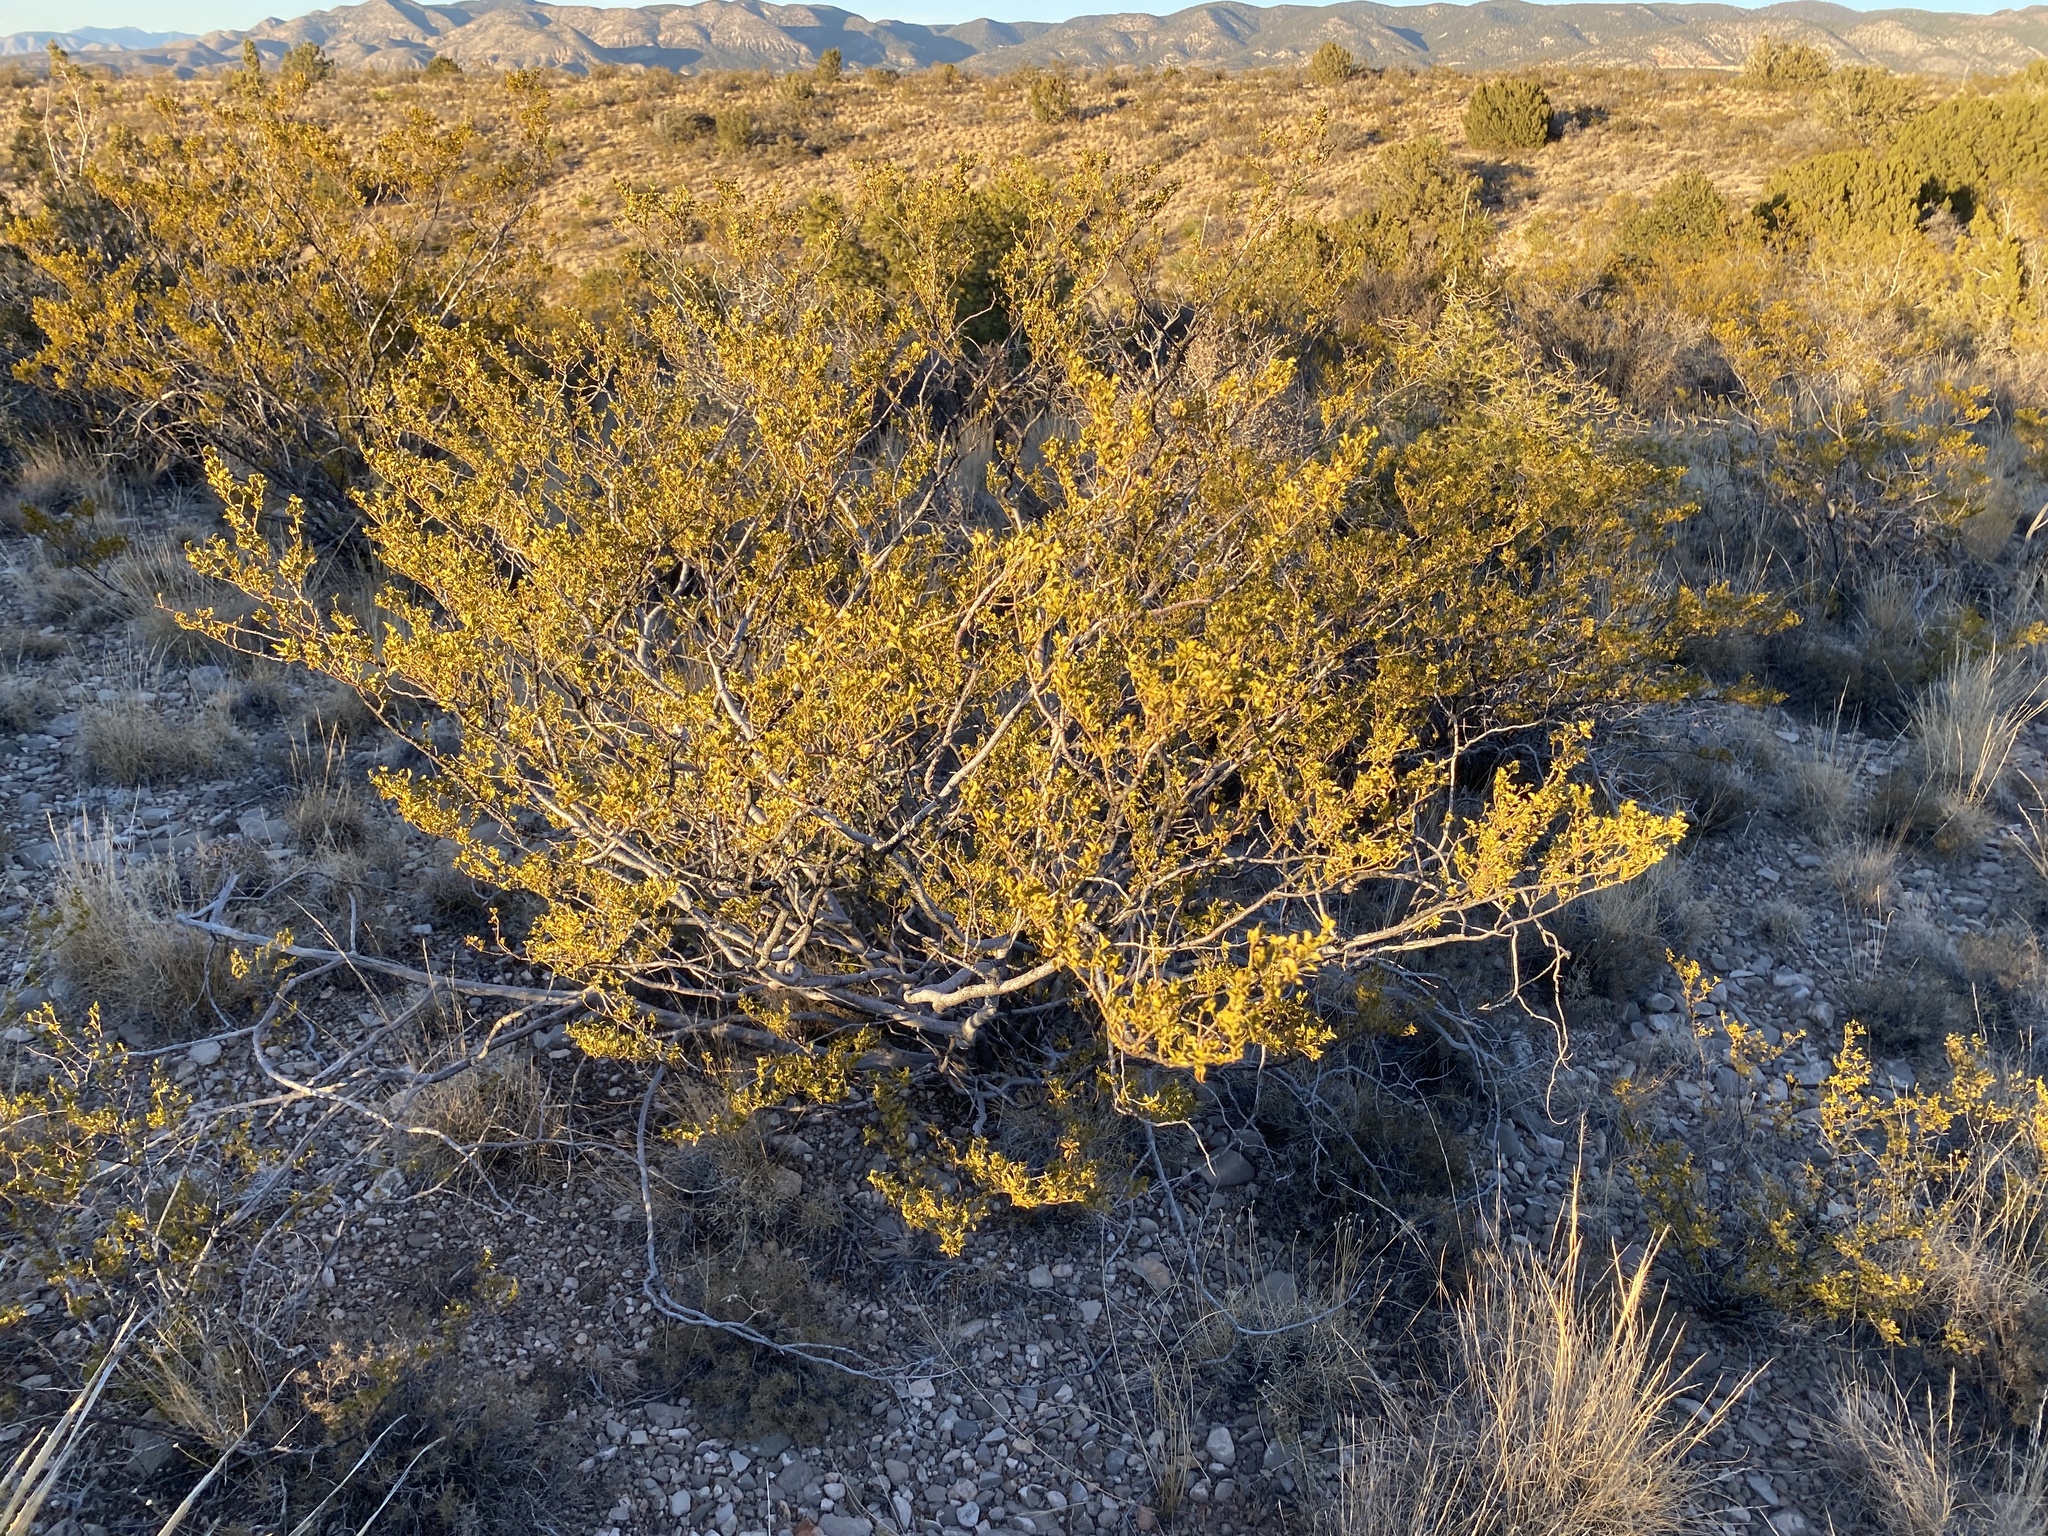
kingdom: Plantae
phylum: Tracheophyta
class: Magnoliopsida
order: Zygophyllales
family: Zygophyllaceae
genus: Larrea
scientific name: Larrea tridentata
